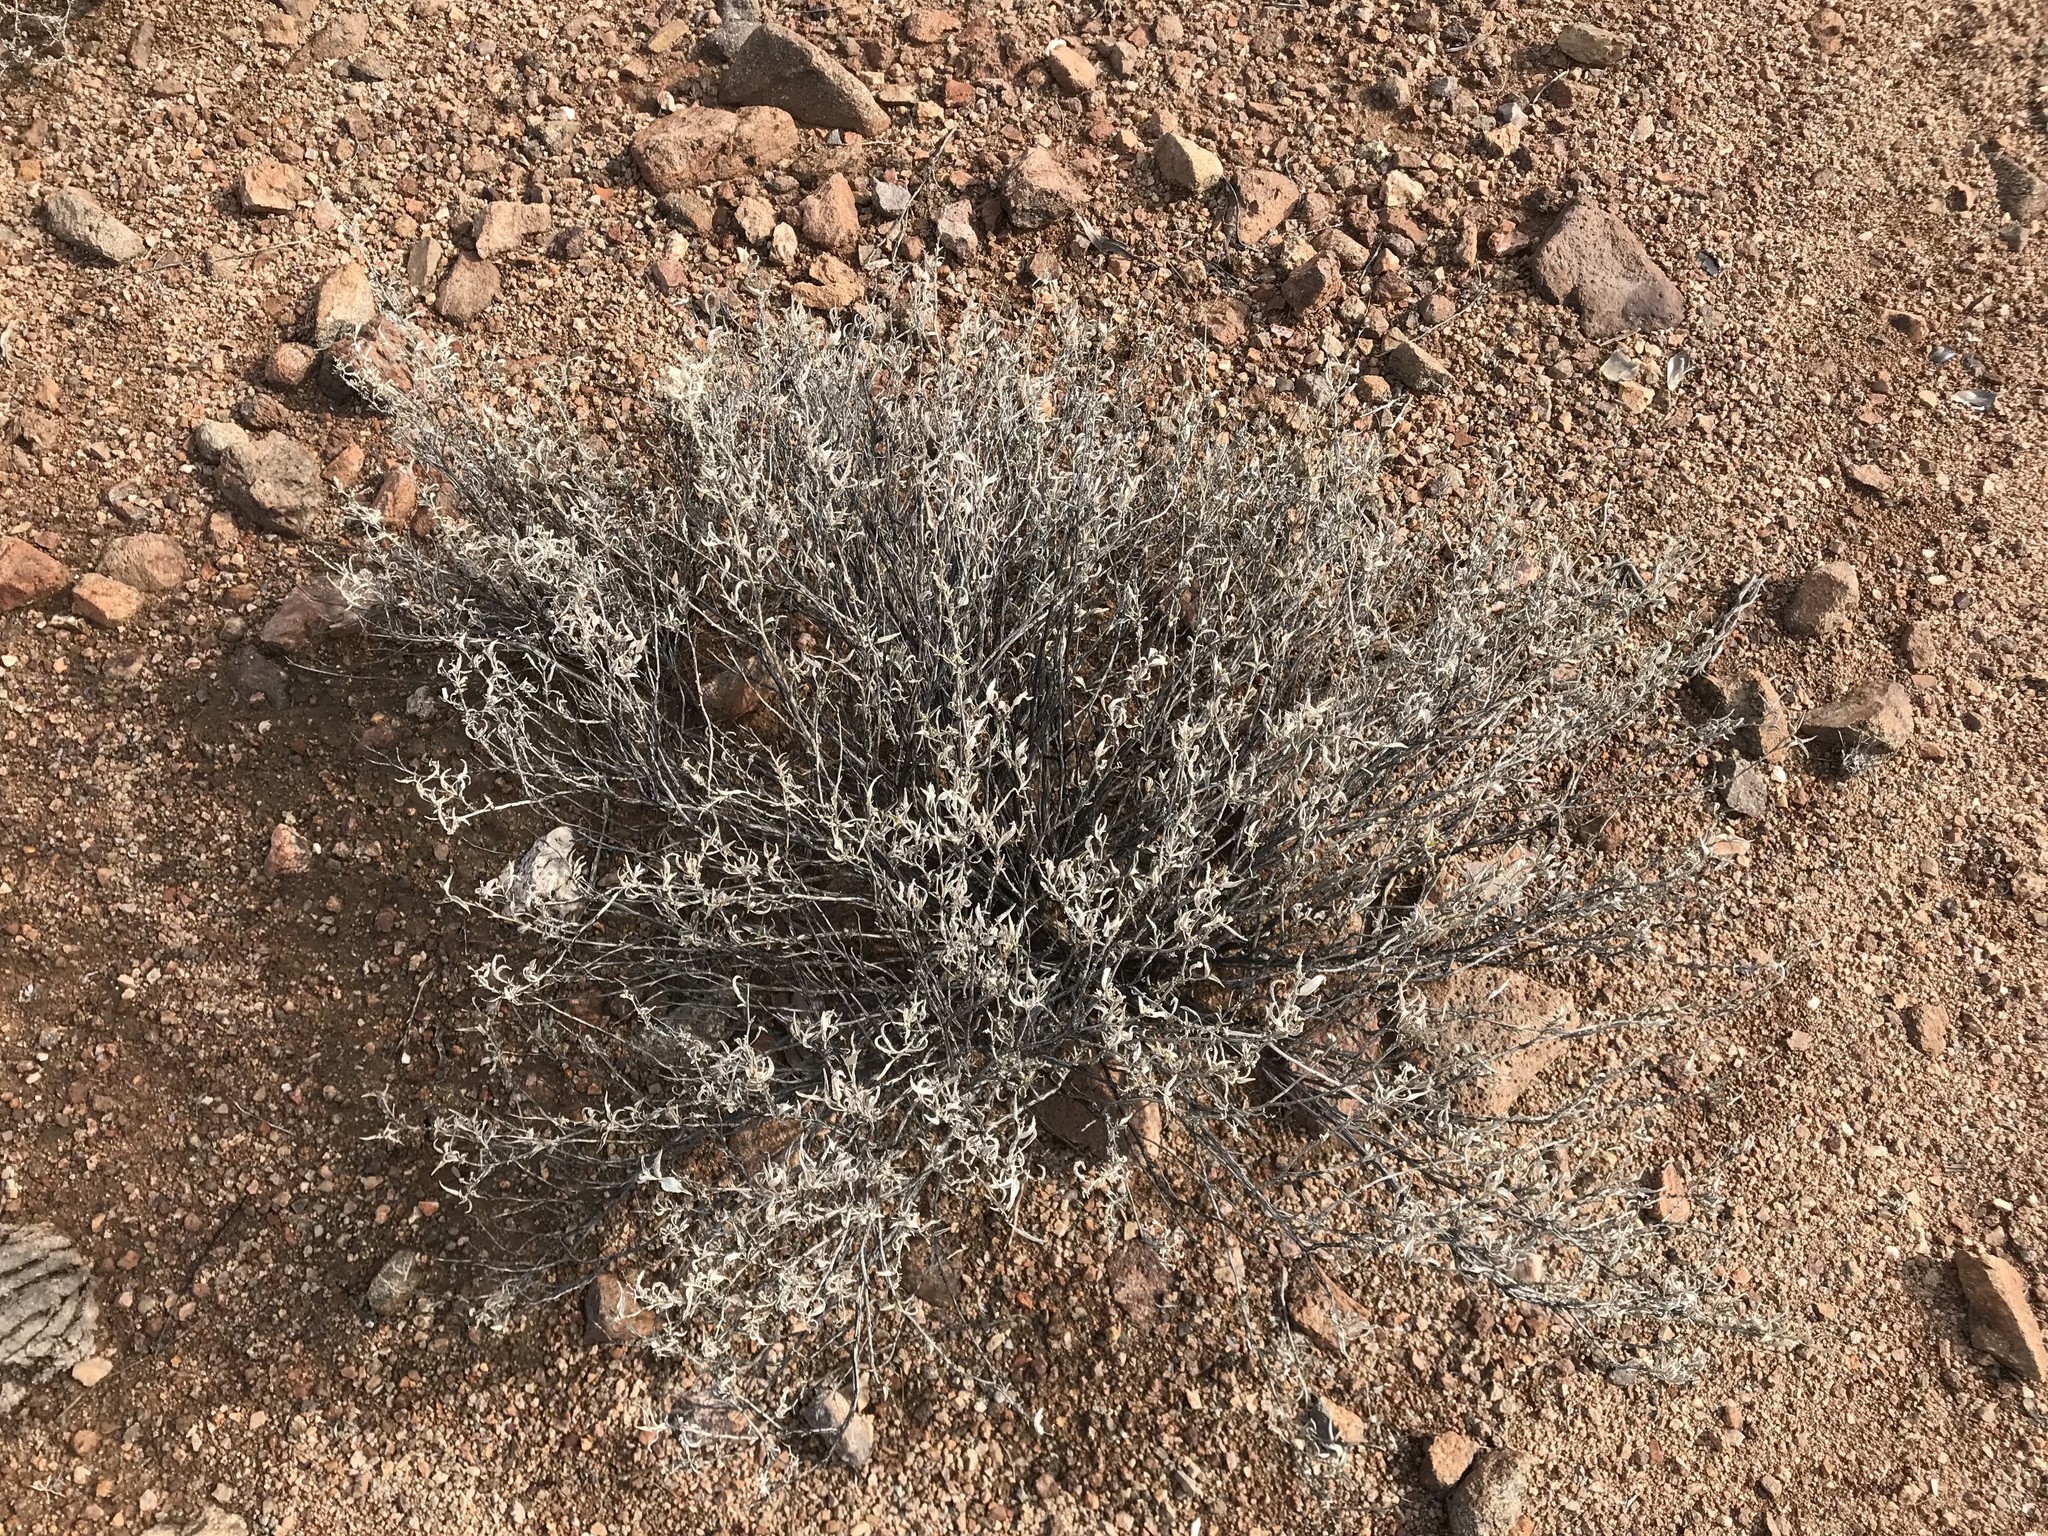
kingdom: Plantae
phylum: Tracheophyta
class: Magnoliopsida
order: Asterales
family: Asteraceae
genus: Ambrosia
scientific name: Ambrosia deltoidea
